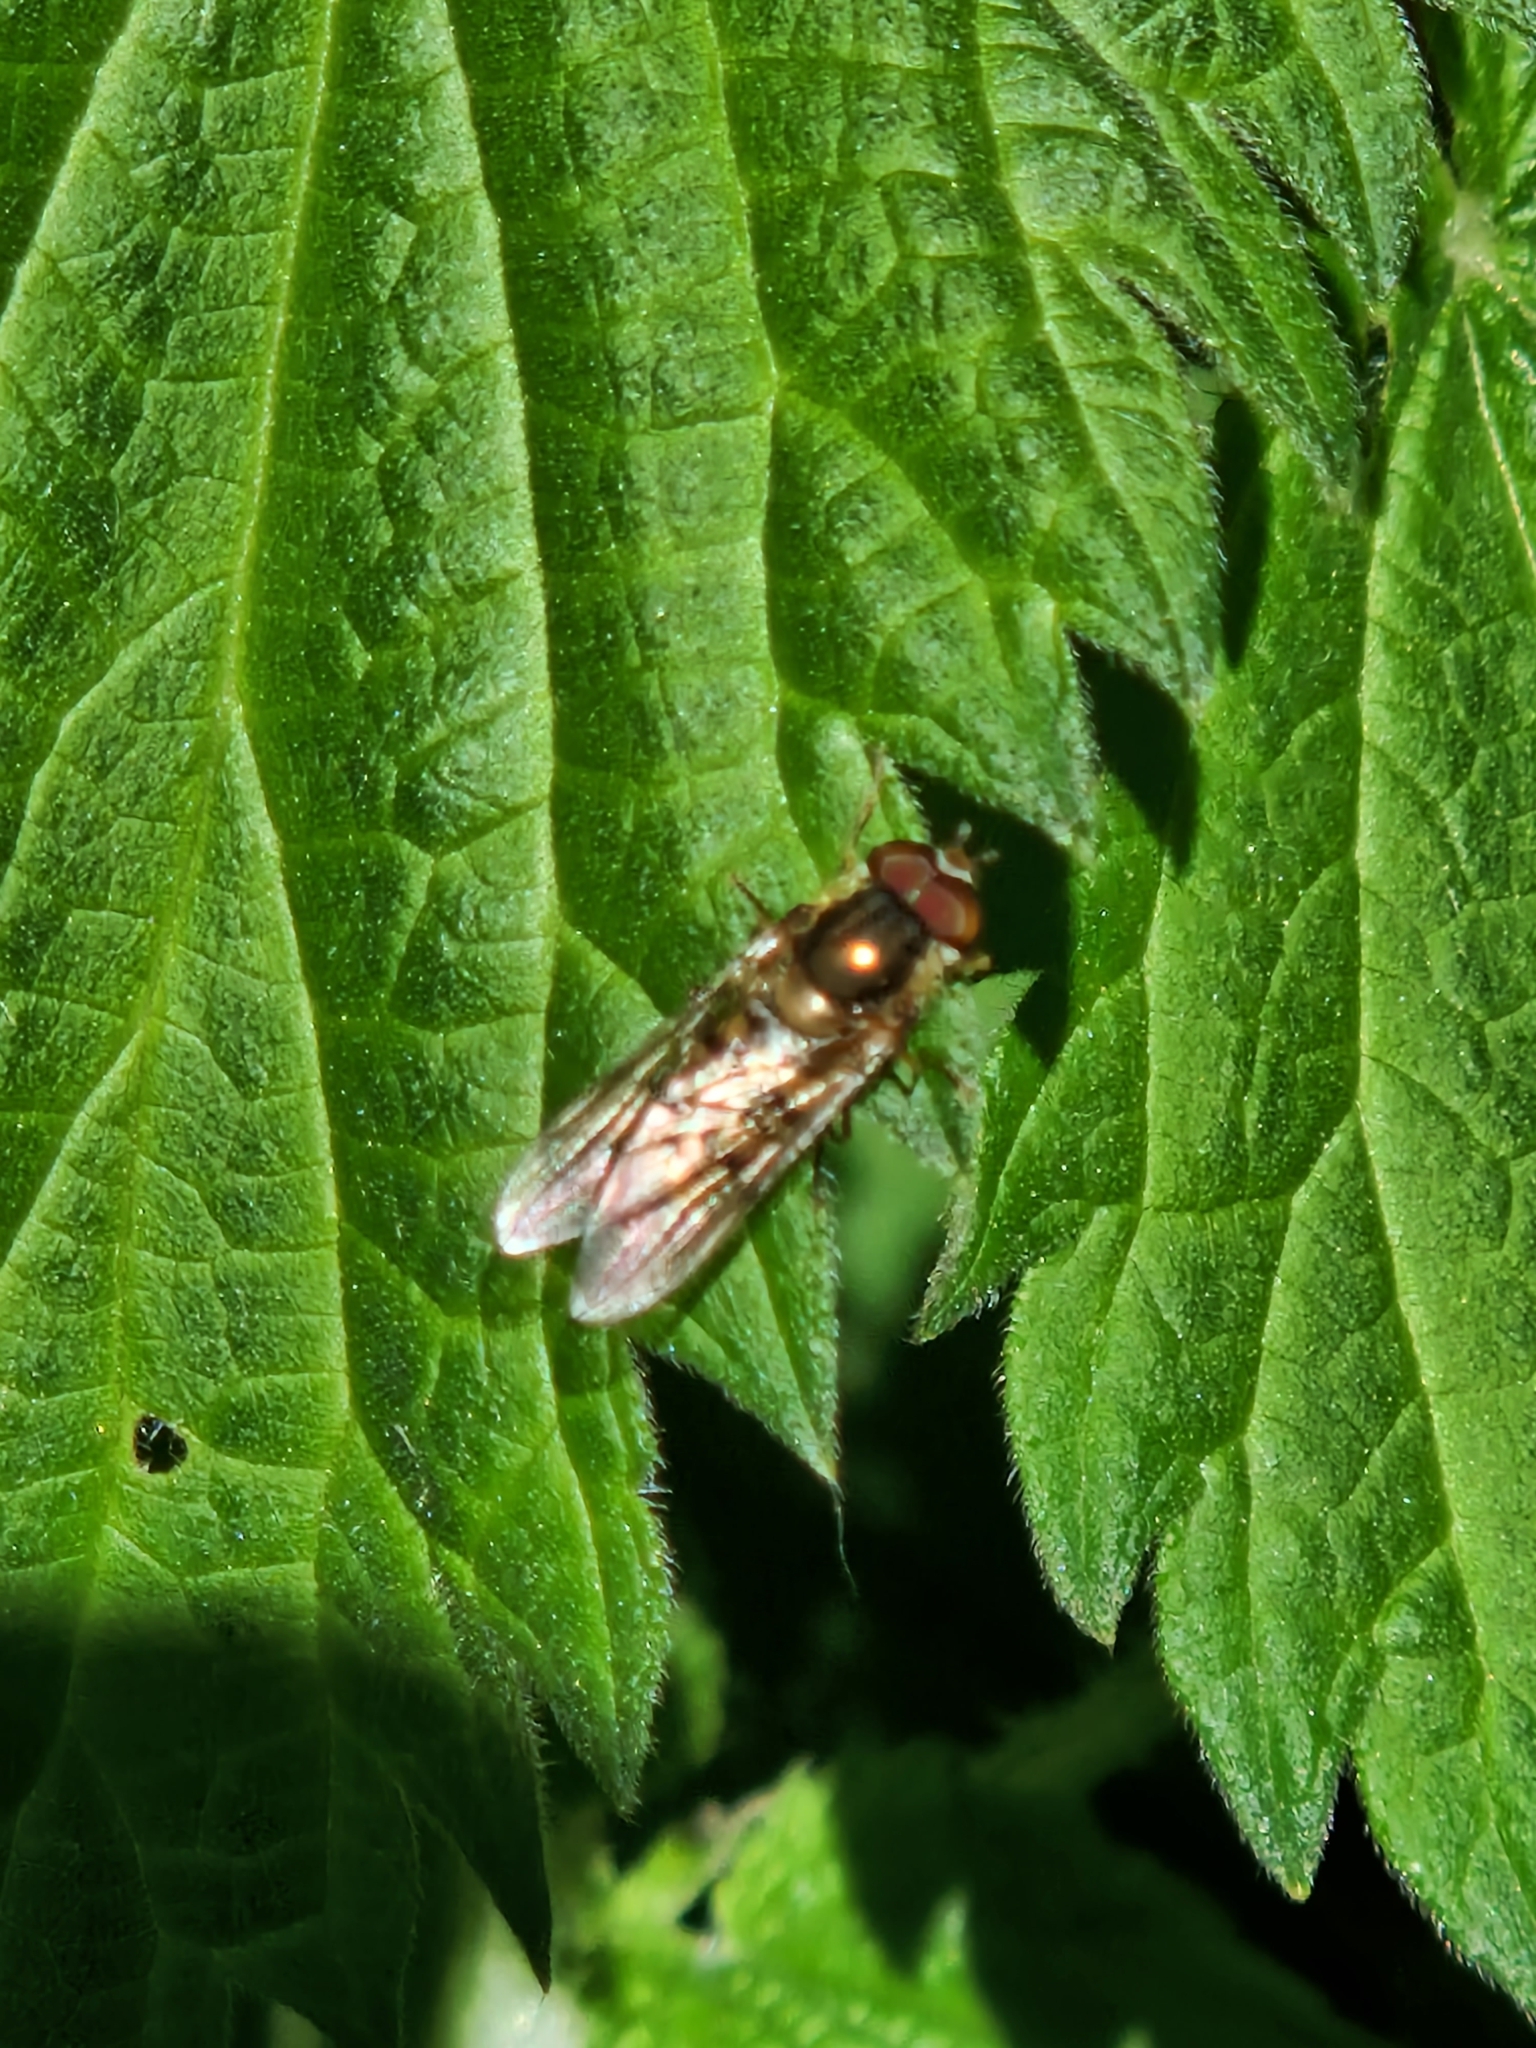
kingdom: Animalia
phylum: Arthropoda
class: Insecta
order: Diptera
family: Syrphidae
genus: Episyrphus
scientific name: Episyrphus balteatus
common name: Marmalade hoverfly
